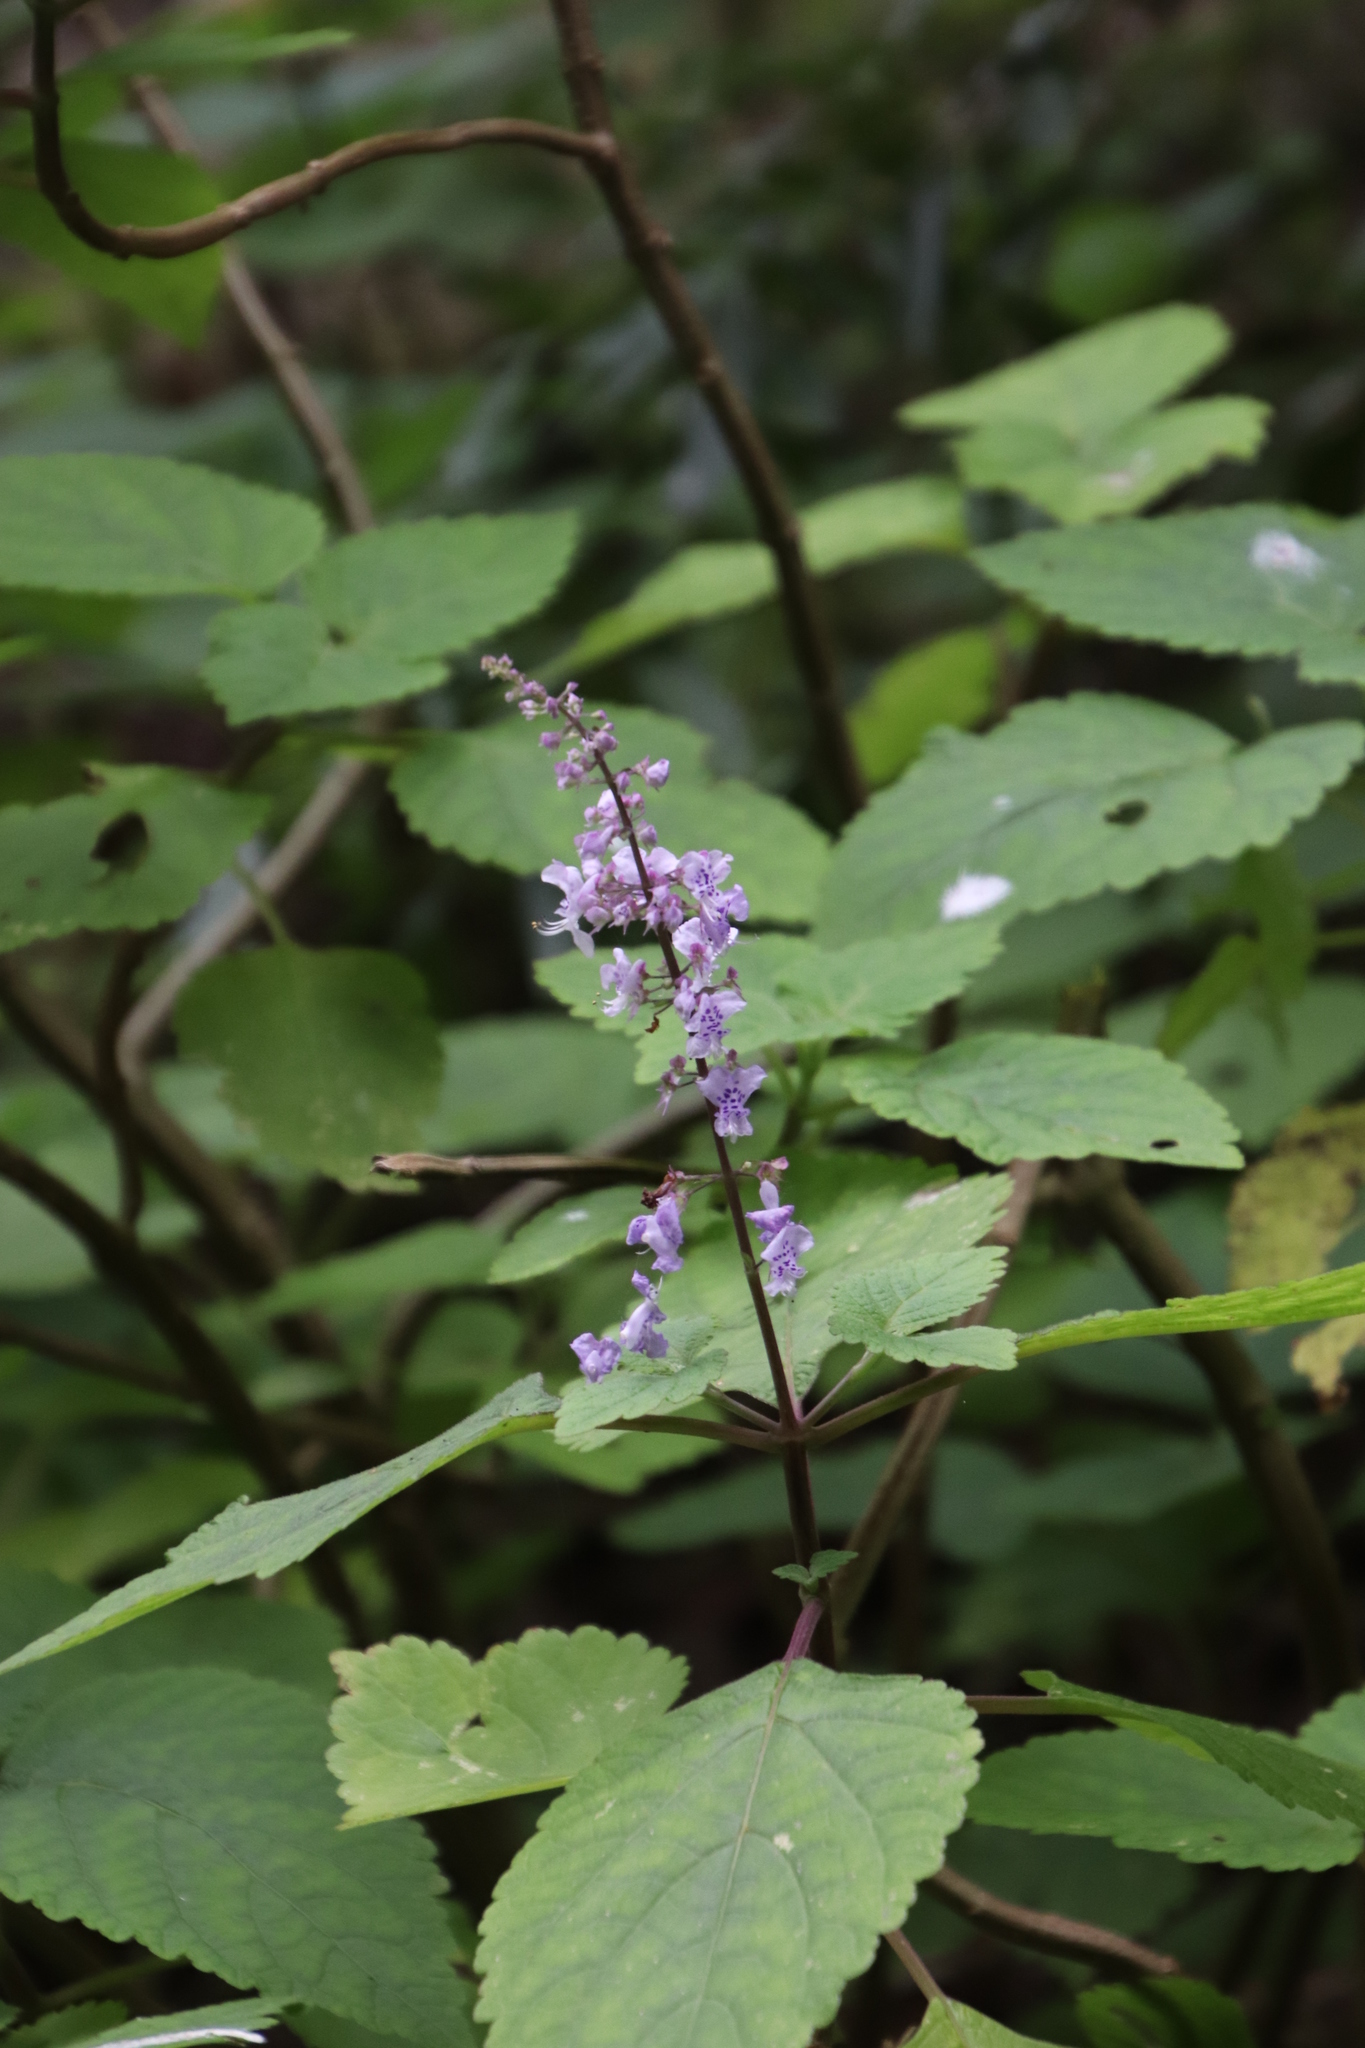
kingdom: Plantae
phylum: Tracheophyta
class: Magnoliopsida
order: Lamiales
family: Lamiaceae
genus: Plectranthus
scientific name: Plectranthus fruticosus
